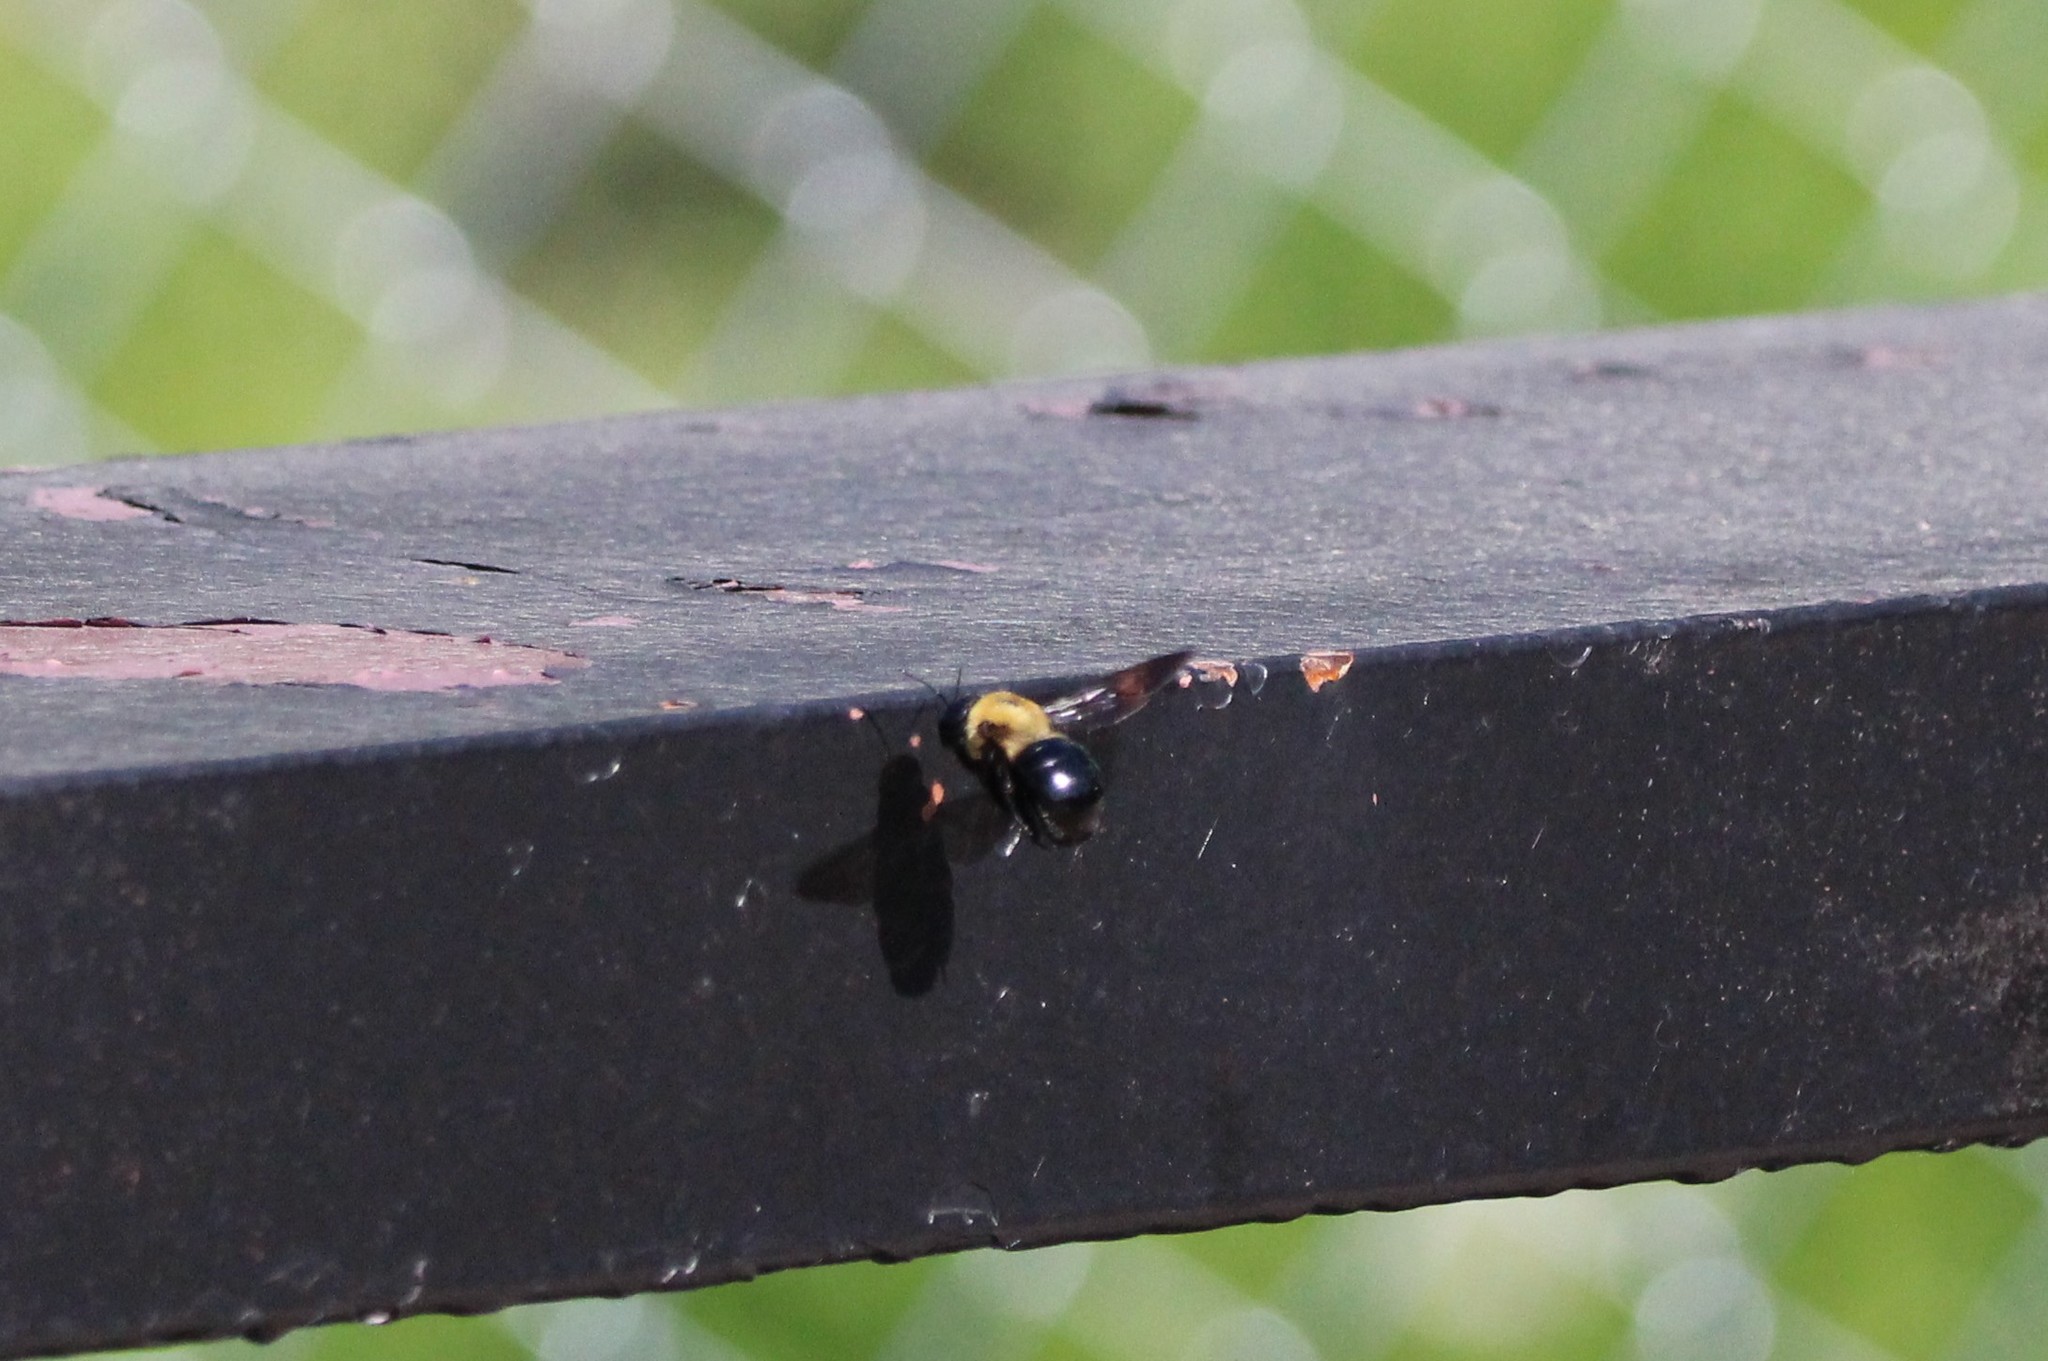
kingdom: Animalia
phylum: Arthropoda
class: Insecta
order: Hymenoptera
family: Apidae
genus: Xylocopa
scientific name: Xylocopa virginica
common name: Carpenter bee
